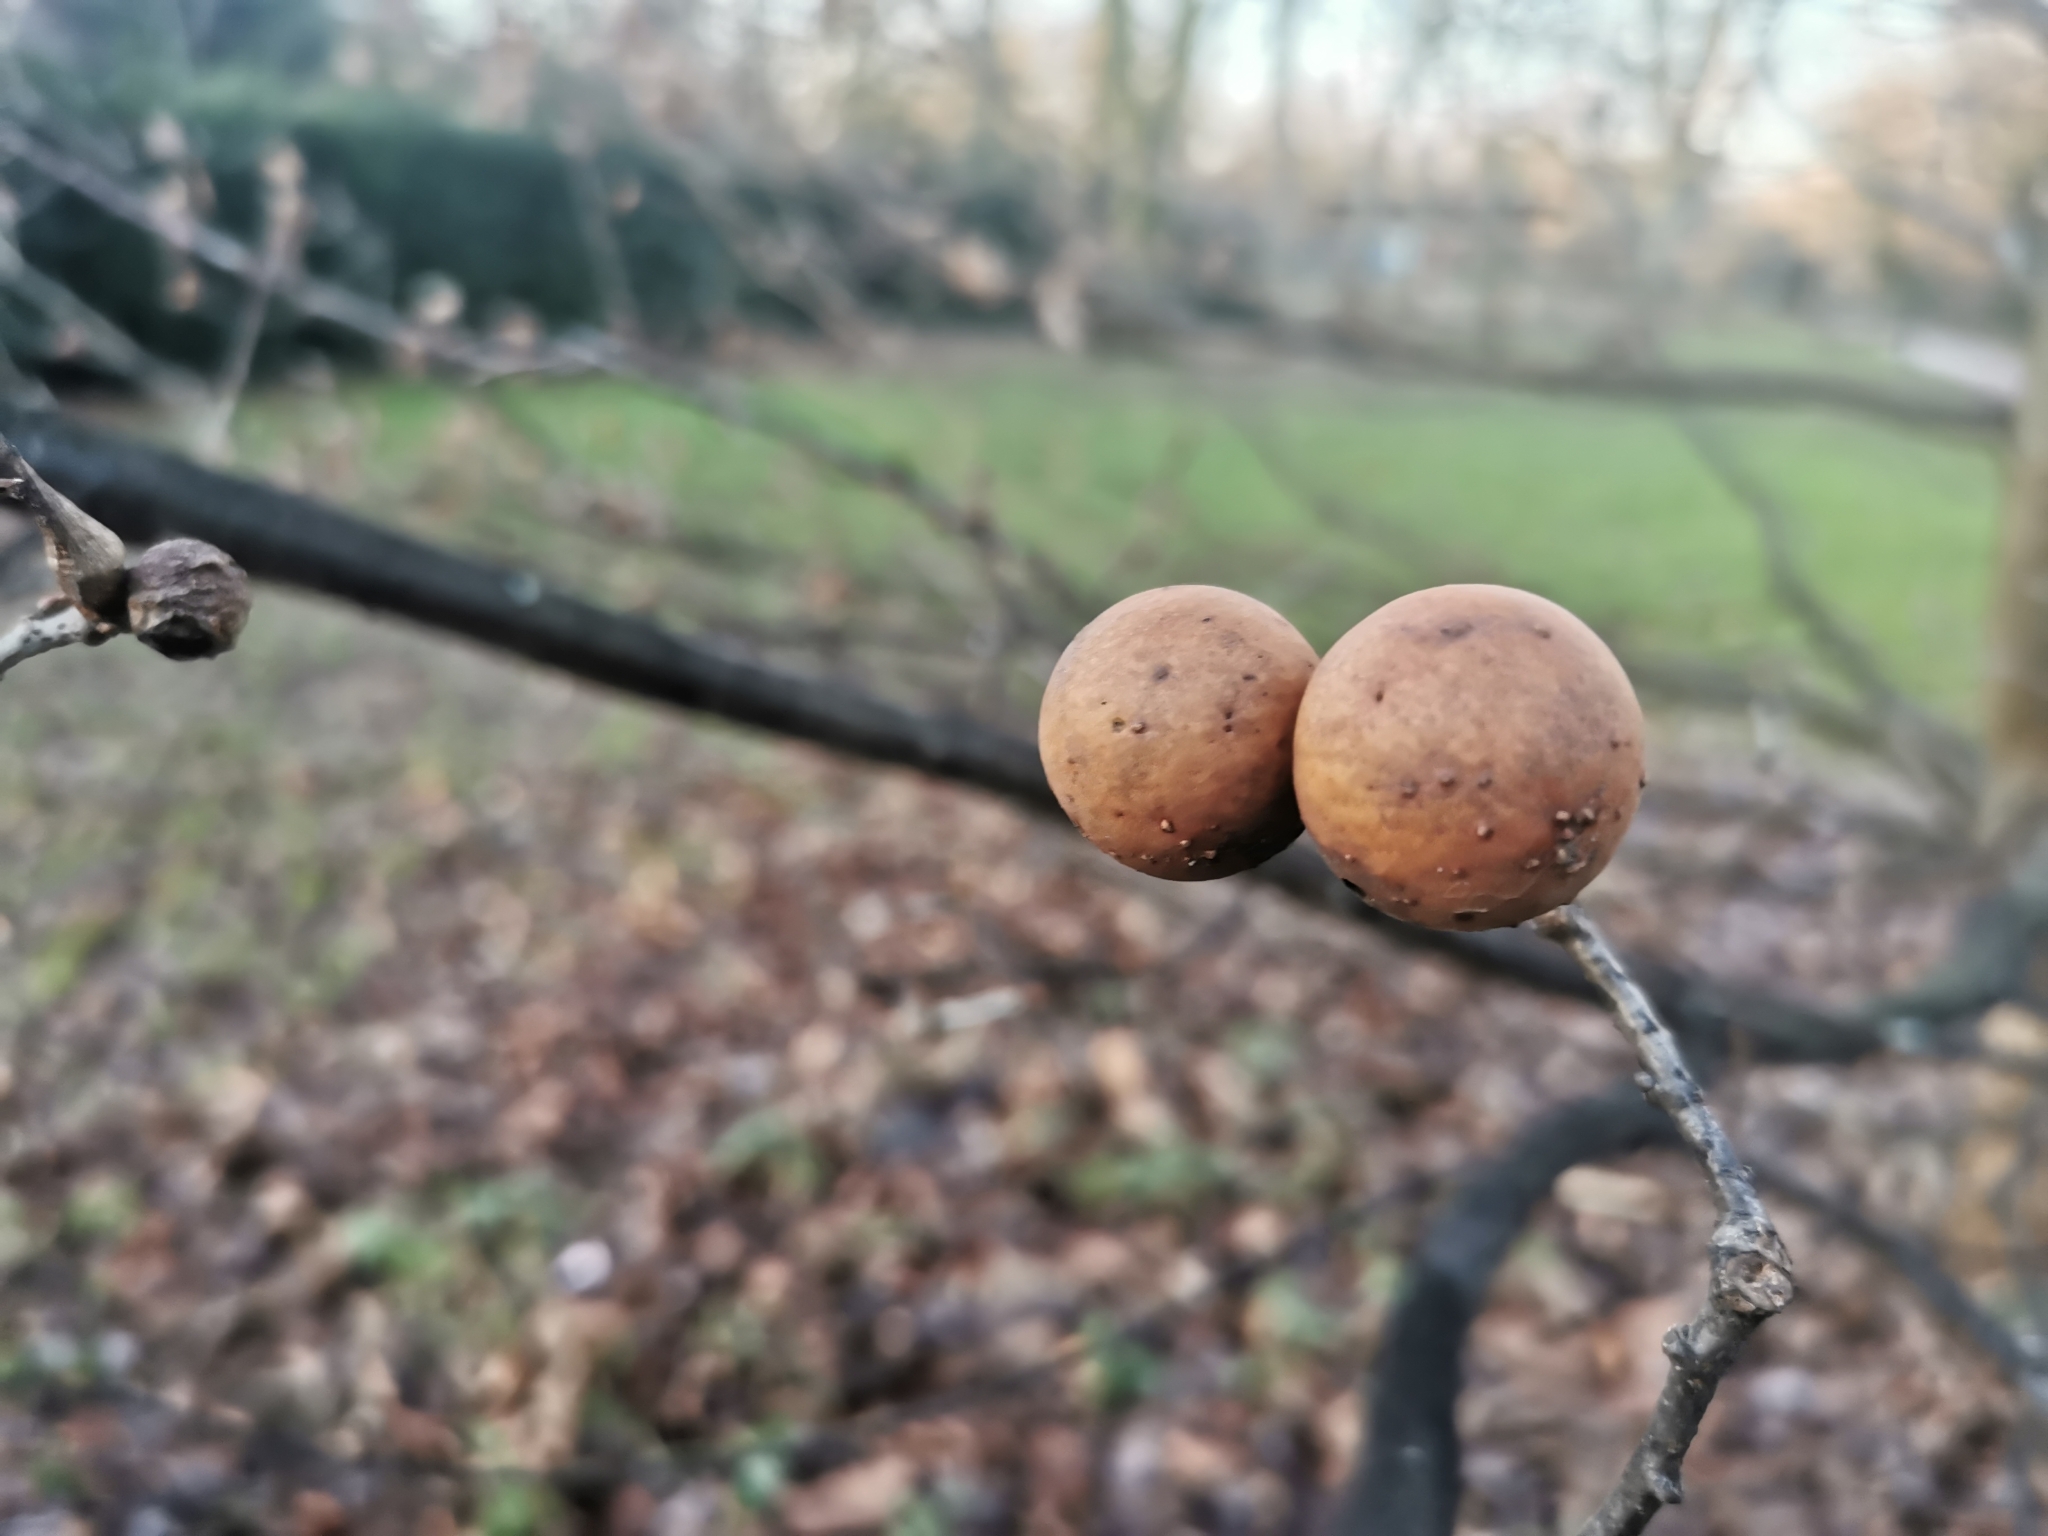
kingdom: Animalia
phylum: Arthropoda
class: Insecta
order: Hymenoptera
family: Cynipidae
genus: Andricus
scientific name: Andricus kollari
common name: Marble gall
